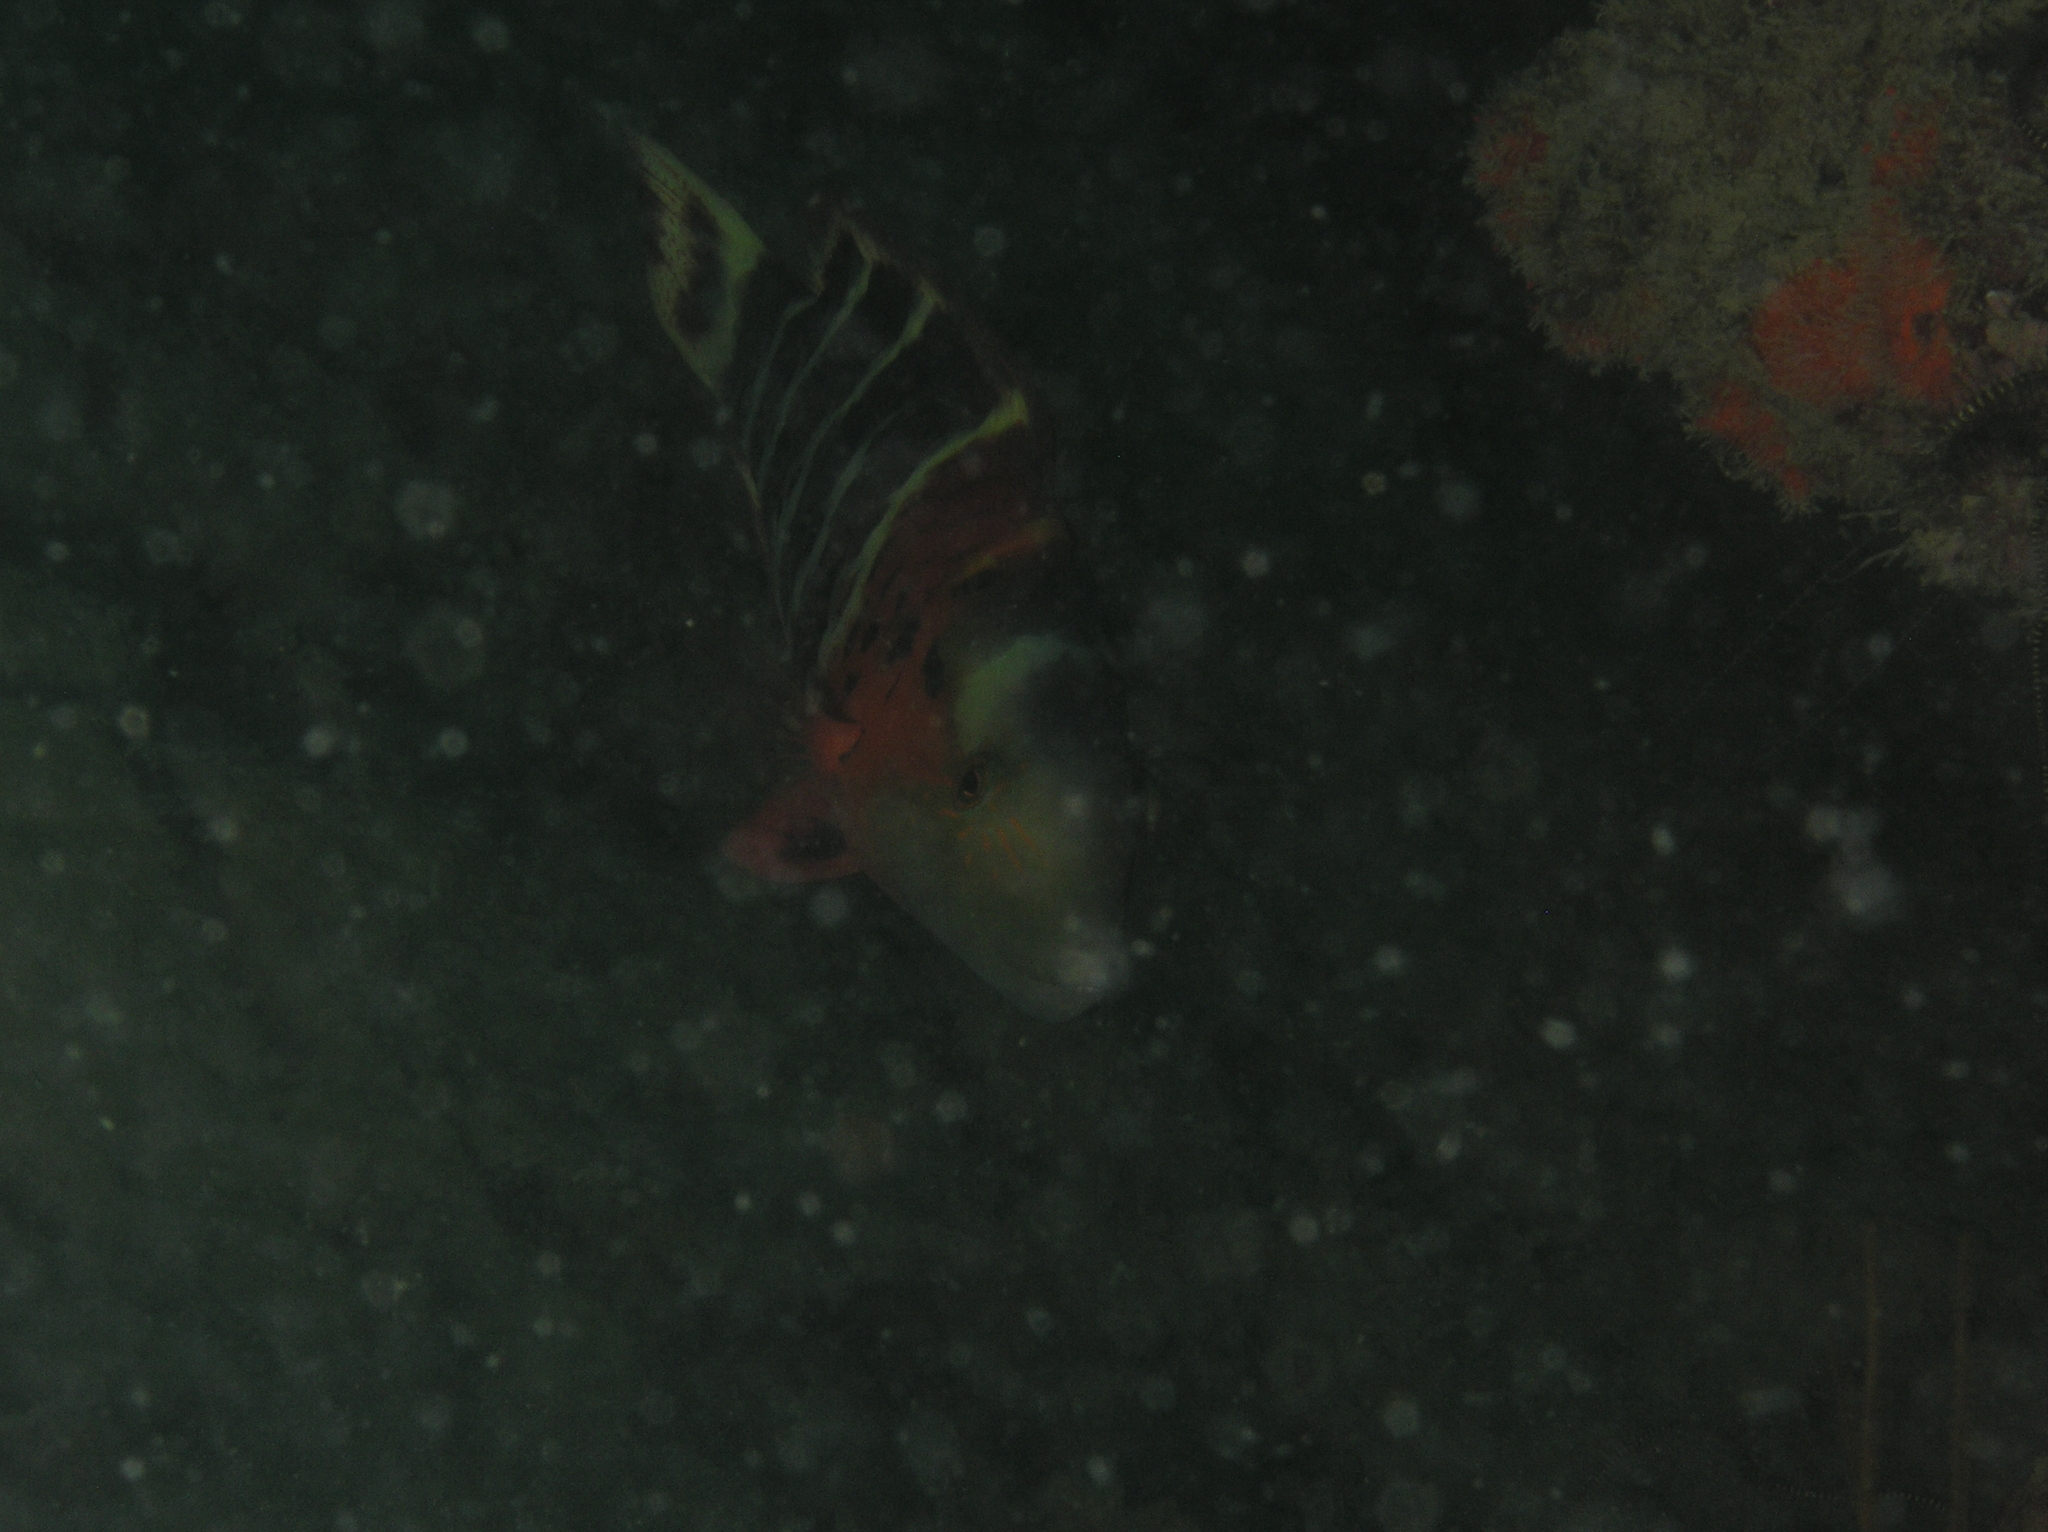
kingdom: Animalia
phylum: Chordata
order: Perciformes
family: Labridae
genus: Cheilinus
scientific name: Cheilinus fasciatus
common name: Red-breasted wrasse
